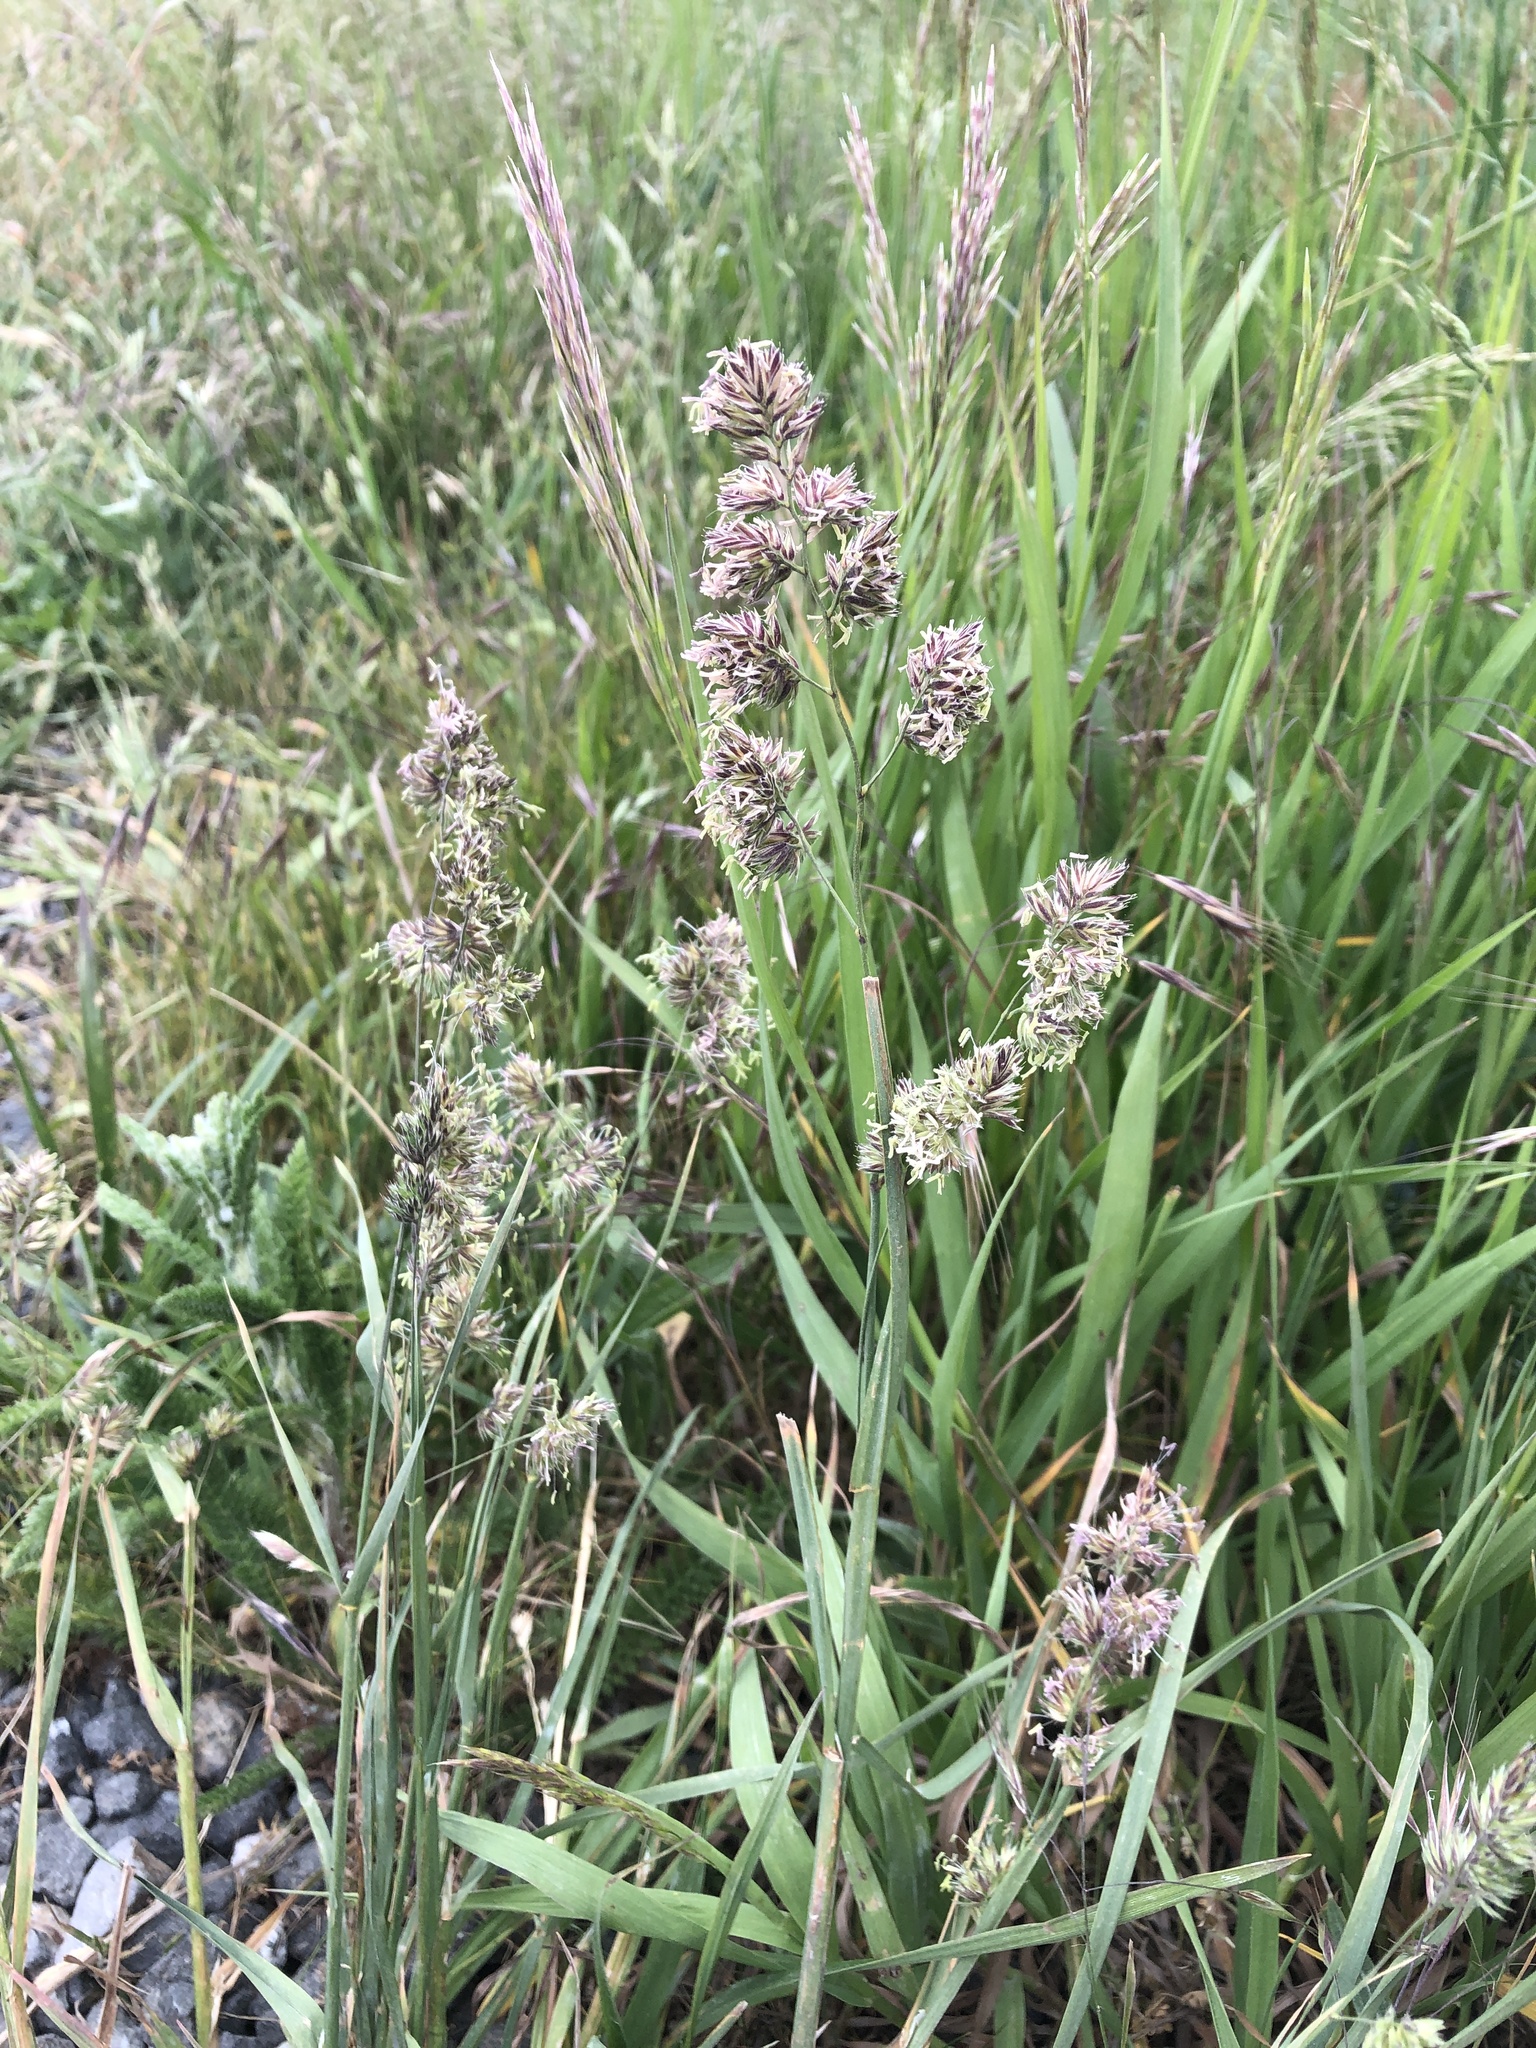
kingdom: Plantae
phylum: Tracheophyta
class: Liliopsida
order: Poales
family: Poaceae
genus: Dactylis
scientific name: Dactylis glomerata
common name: Orchardgrass
